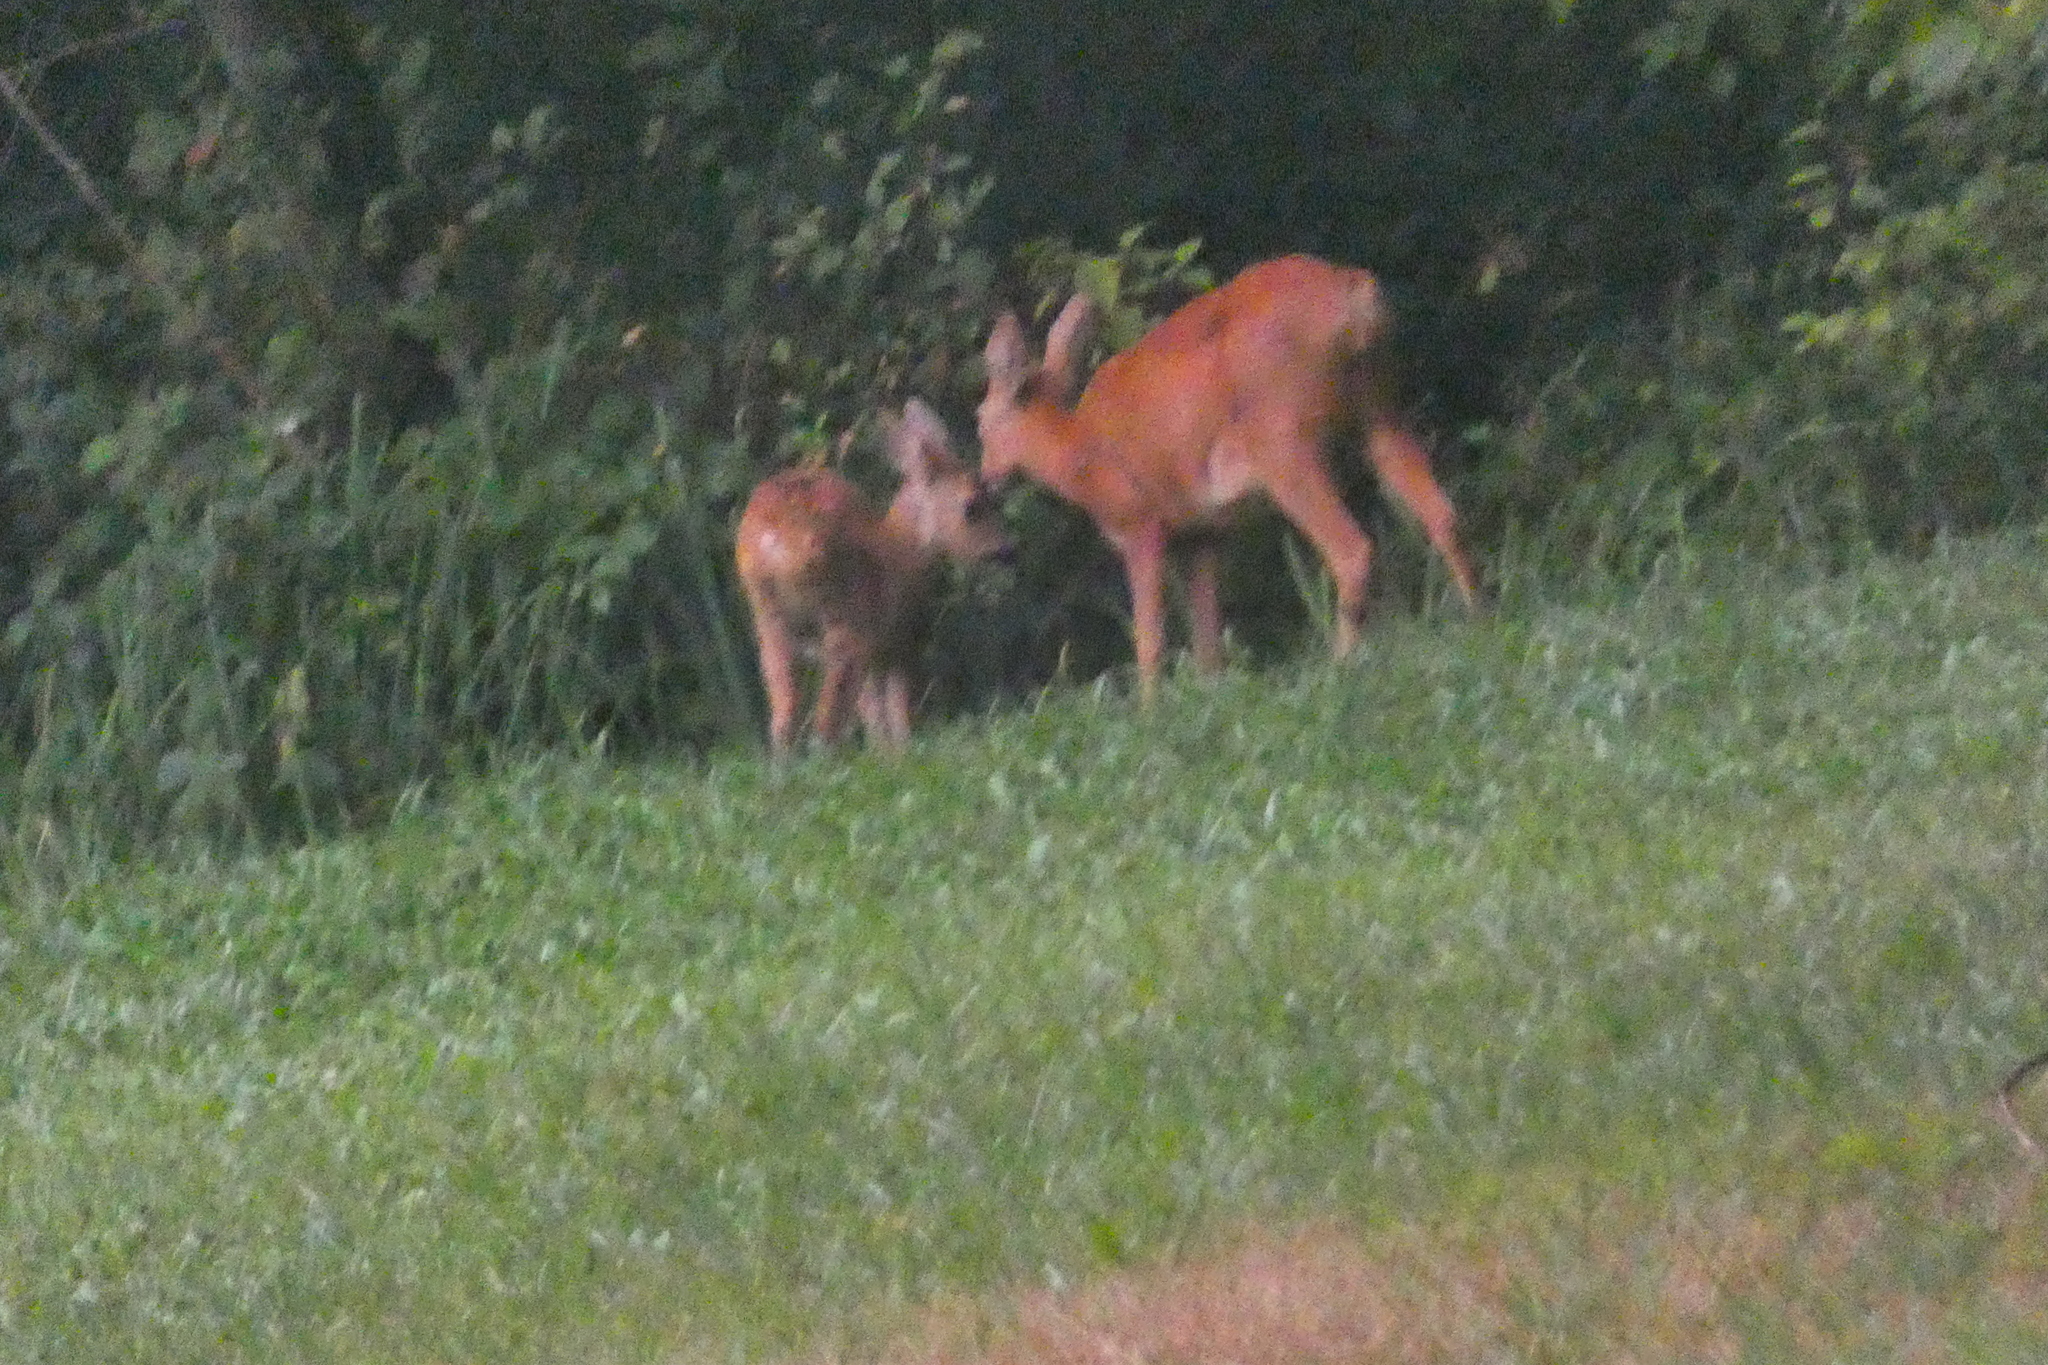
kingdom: Animalia
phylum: Chordata
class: Mammalia
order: Artiodactyla
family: Cervidae
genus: Capreolus
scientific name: Capreolus capreolus
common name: Western roe deer
